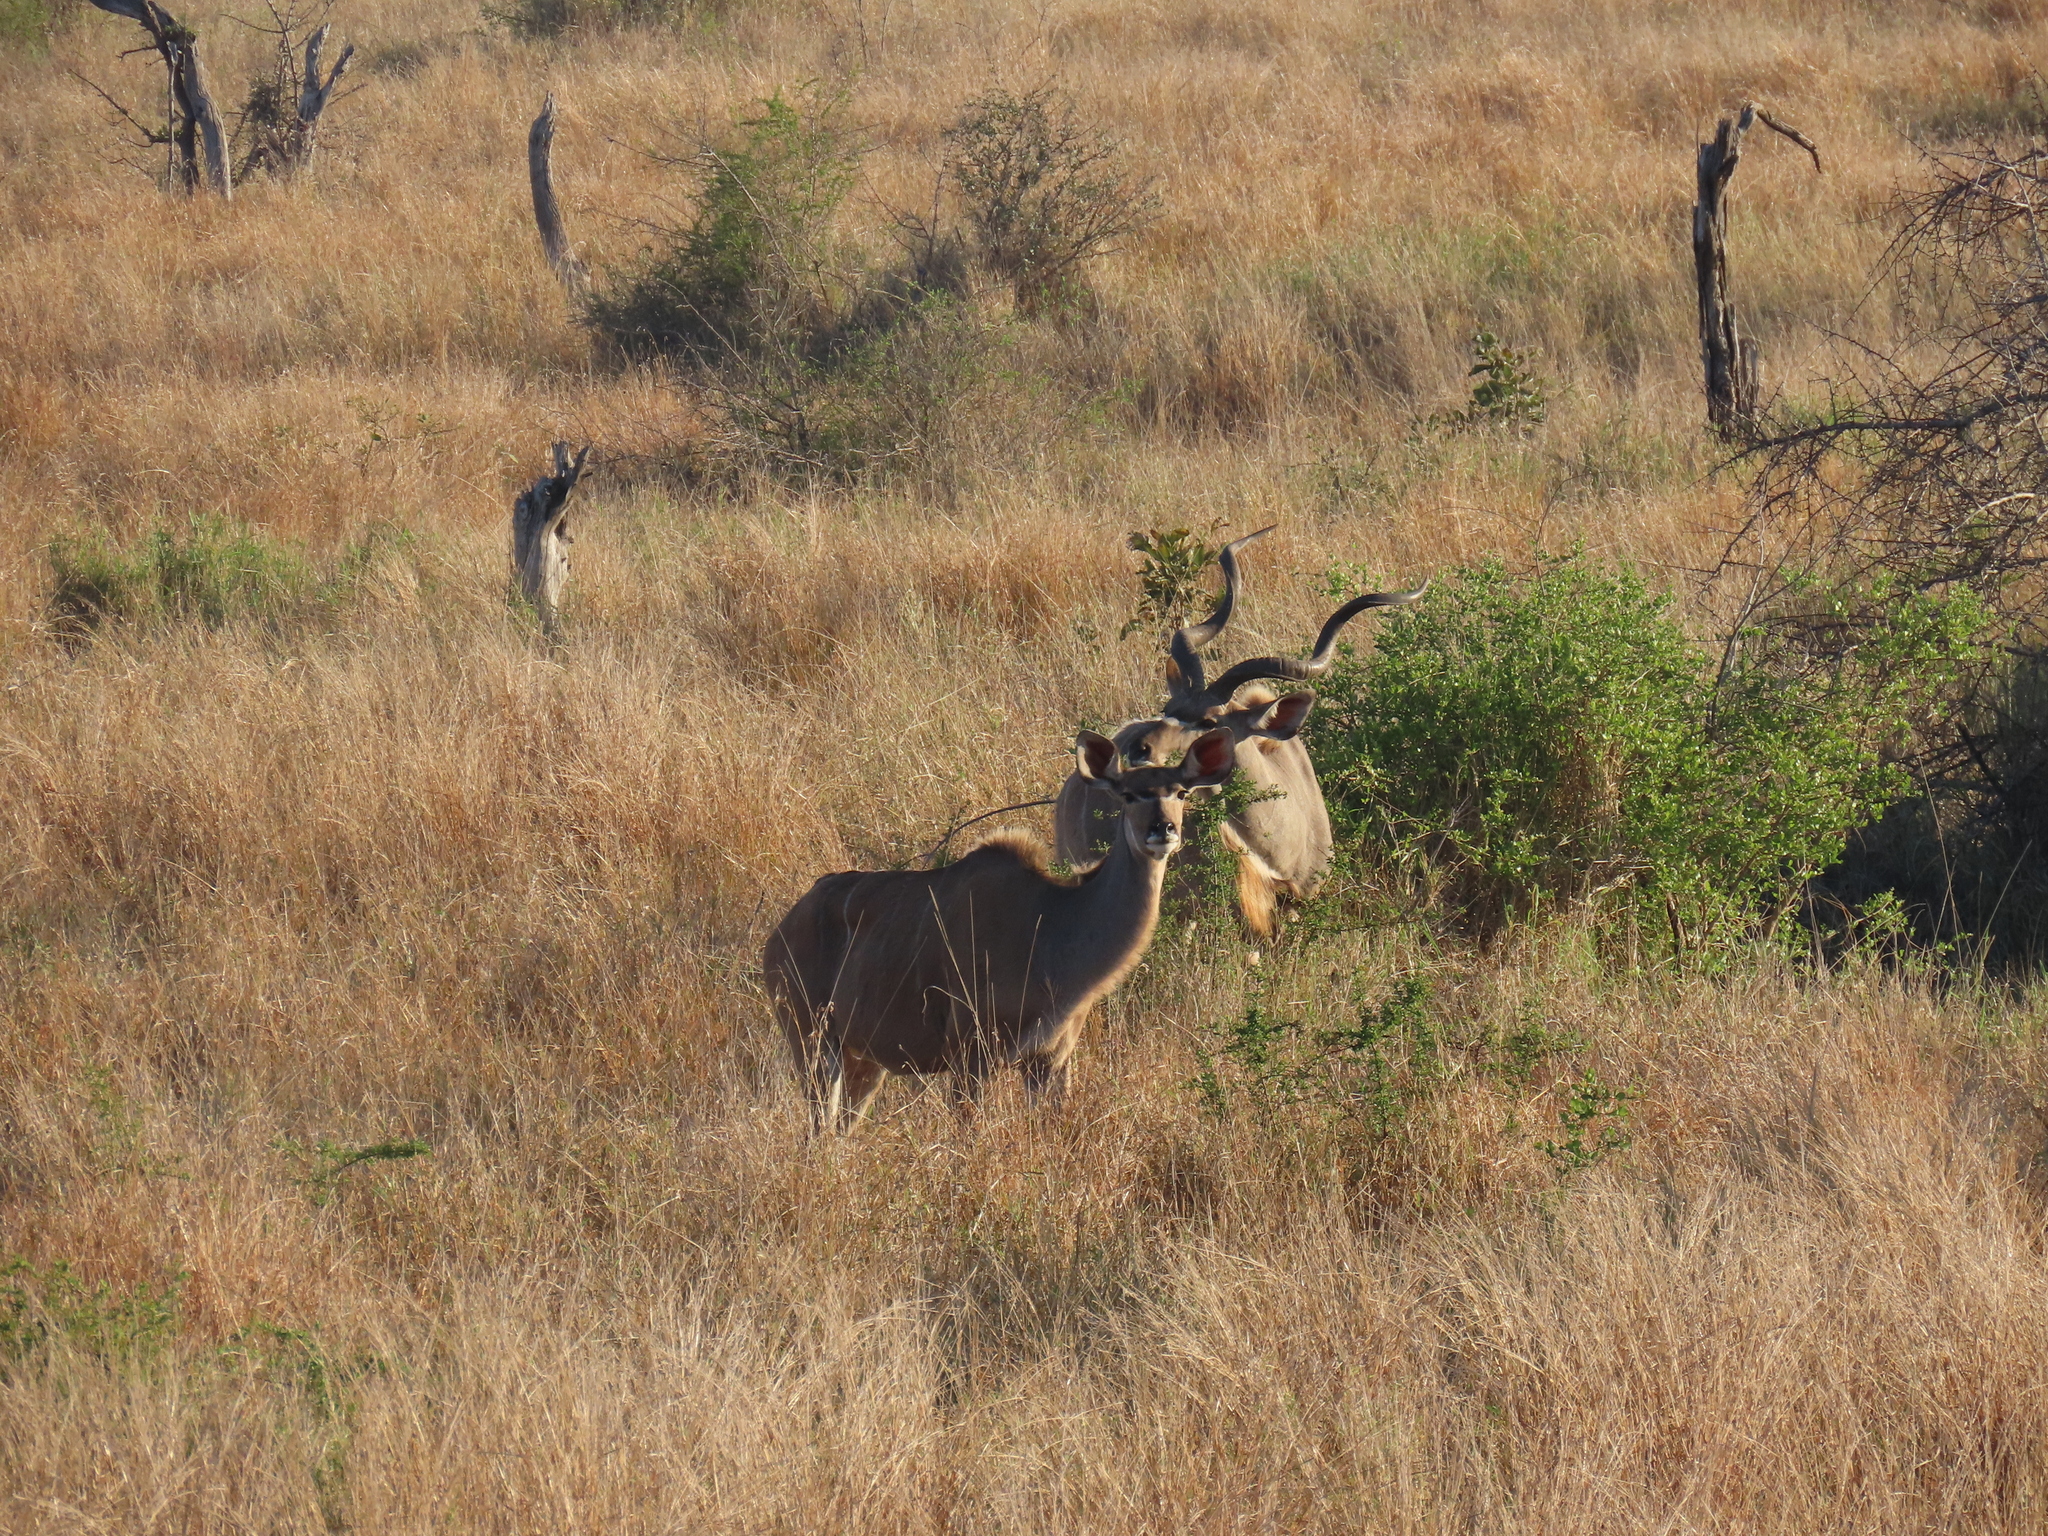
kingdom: Animalia
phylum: Chordata
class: Mammalia
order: Artiodactyla
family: Bovidae
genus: Tragelaphus
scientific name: Tragelaphus strepsiceros
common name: Greater kudu
